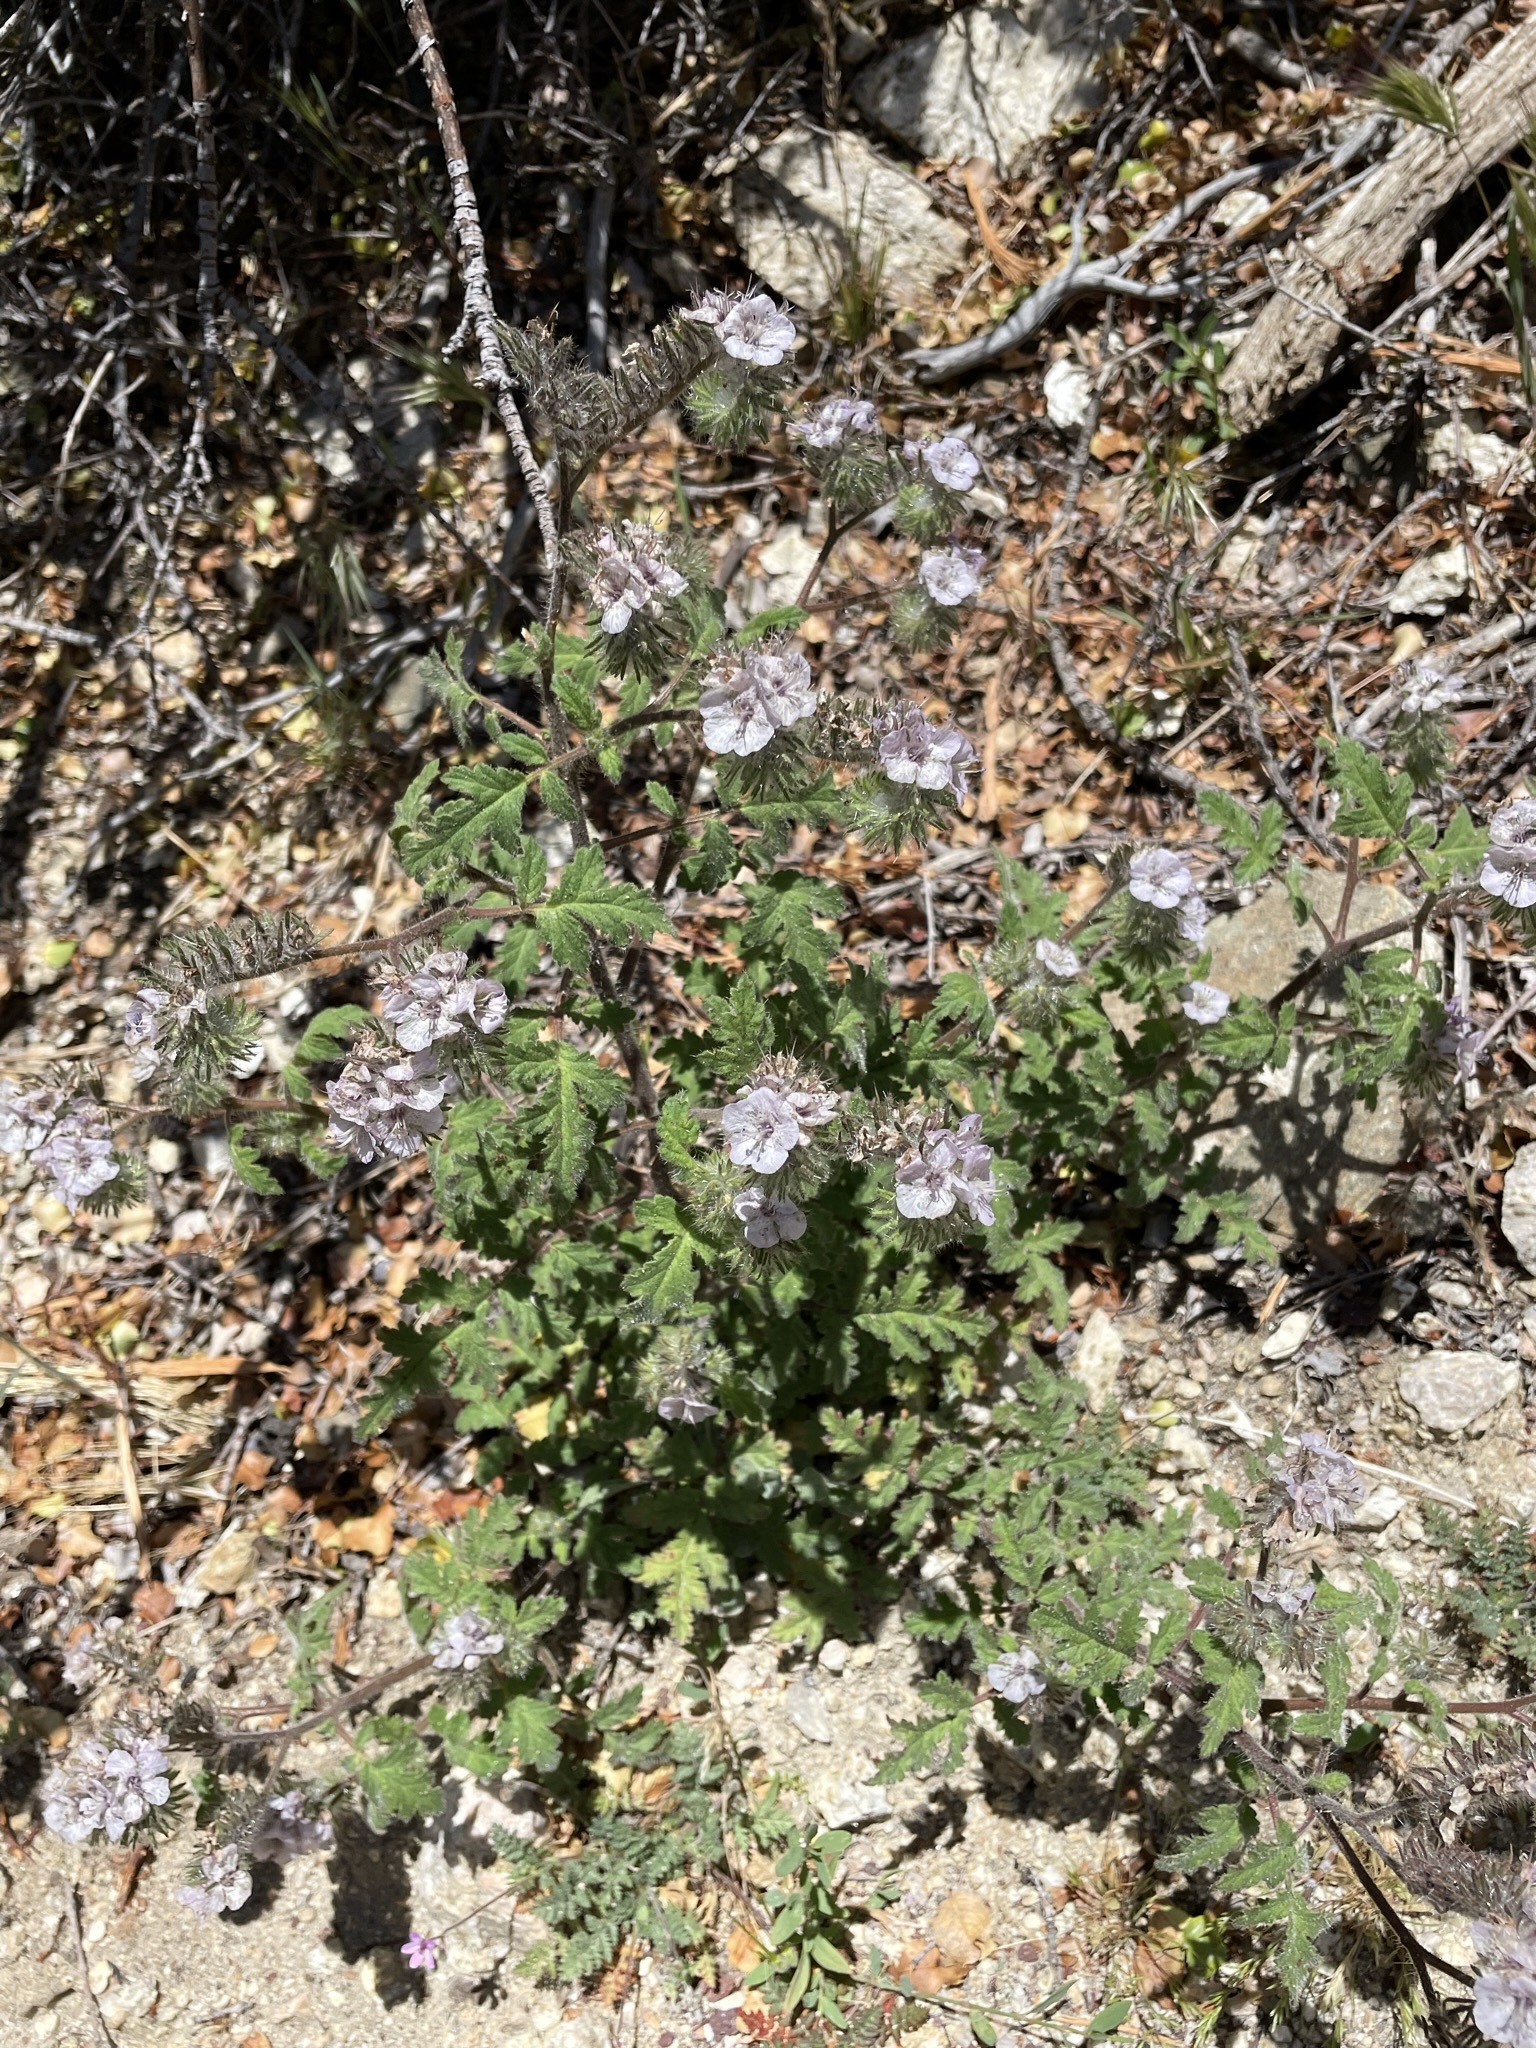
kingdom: Plantae
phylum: Tracheophyta
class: Magnoliopsida
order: Boraginales
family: Hydrophyllaceae
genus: Phacelia
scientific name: Phacelia cicutaria
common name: Caterpillar phacelia
